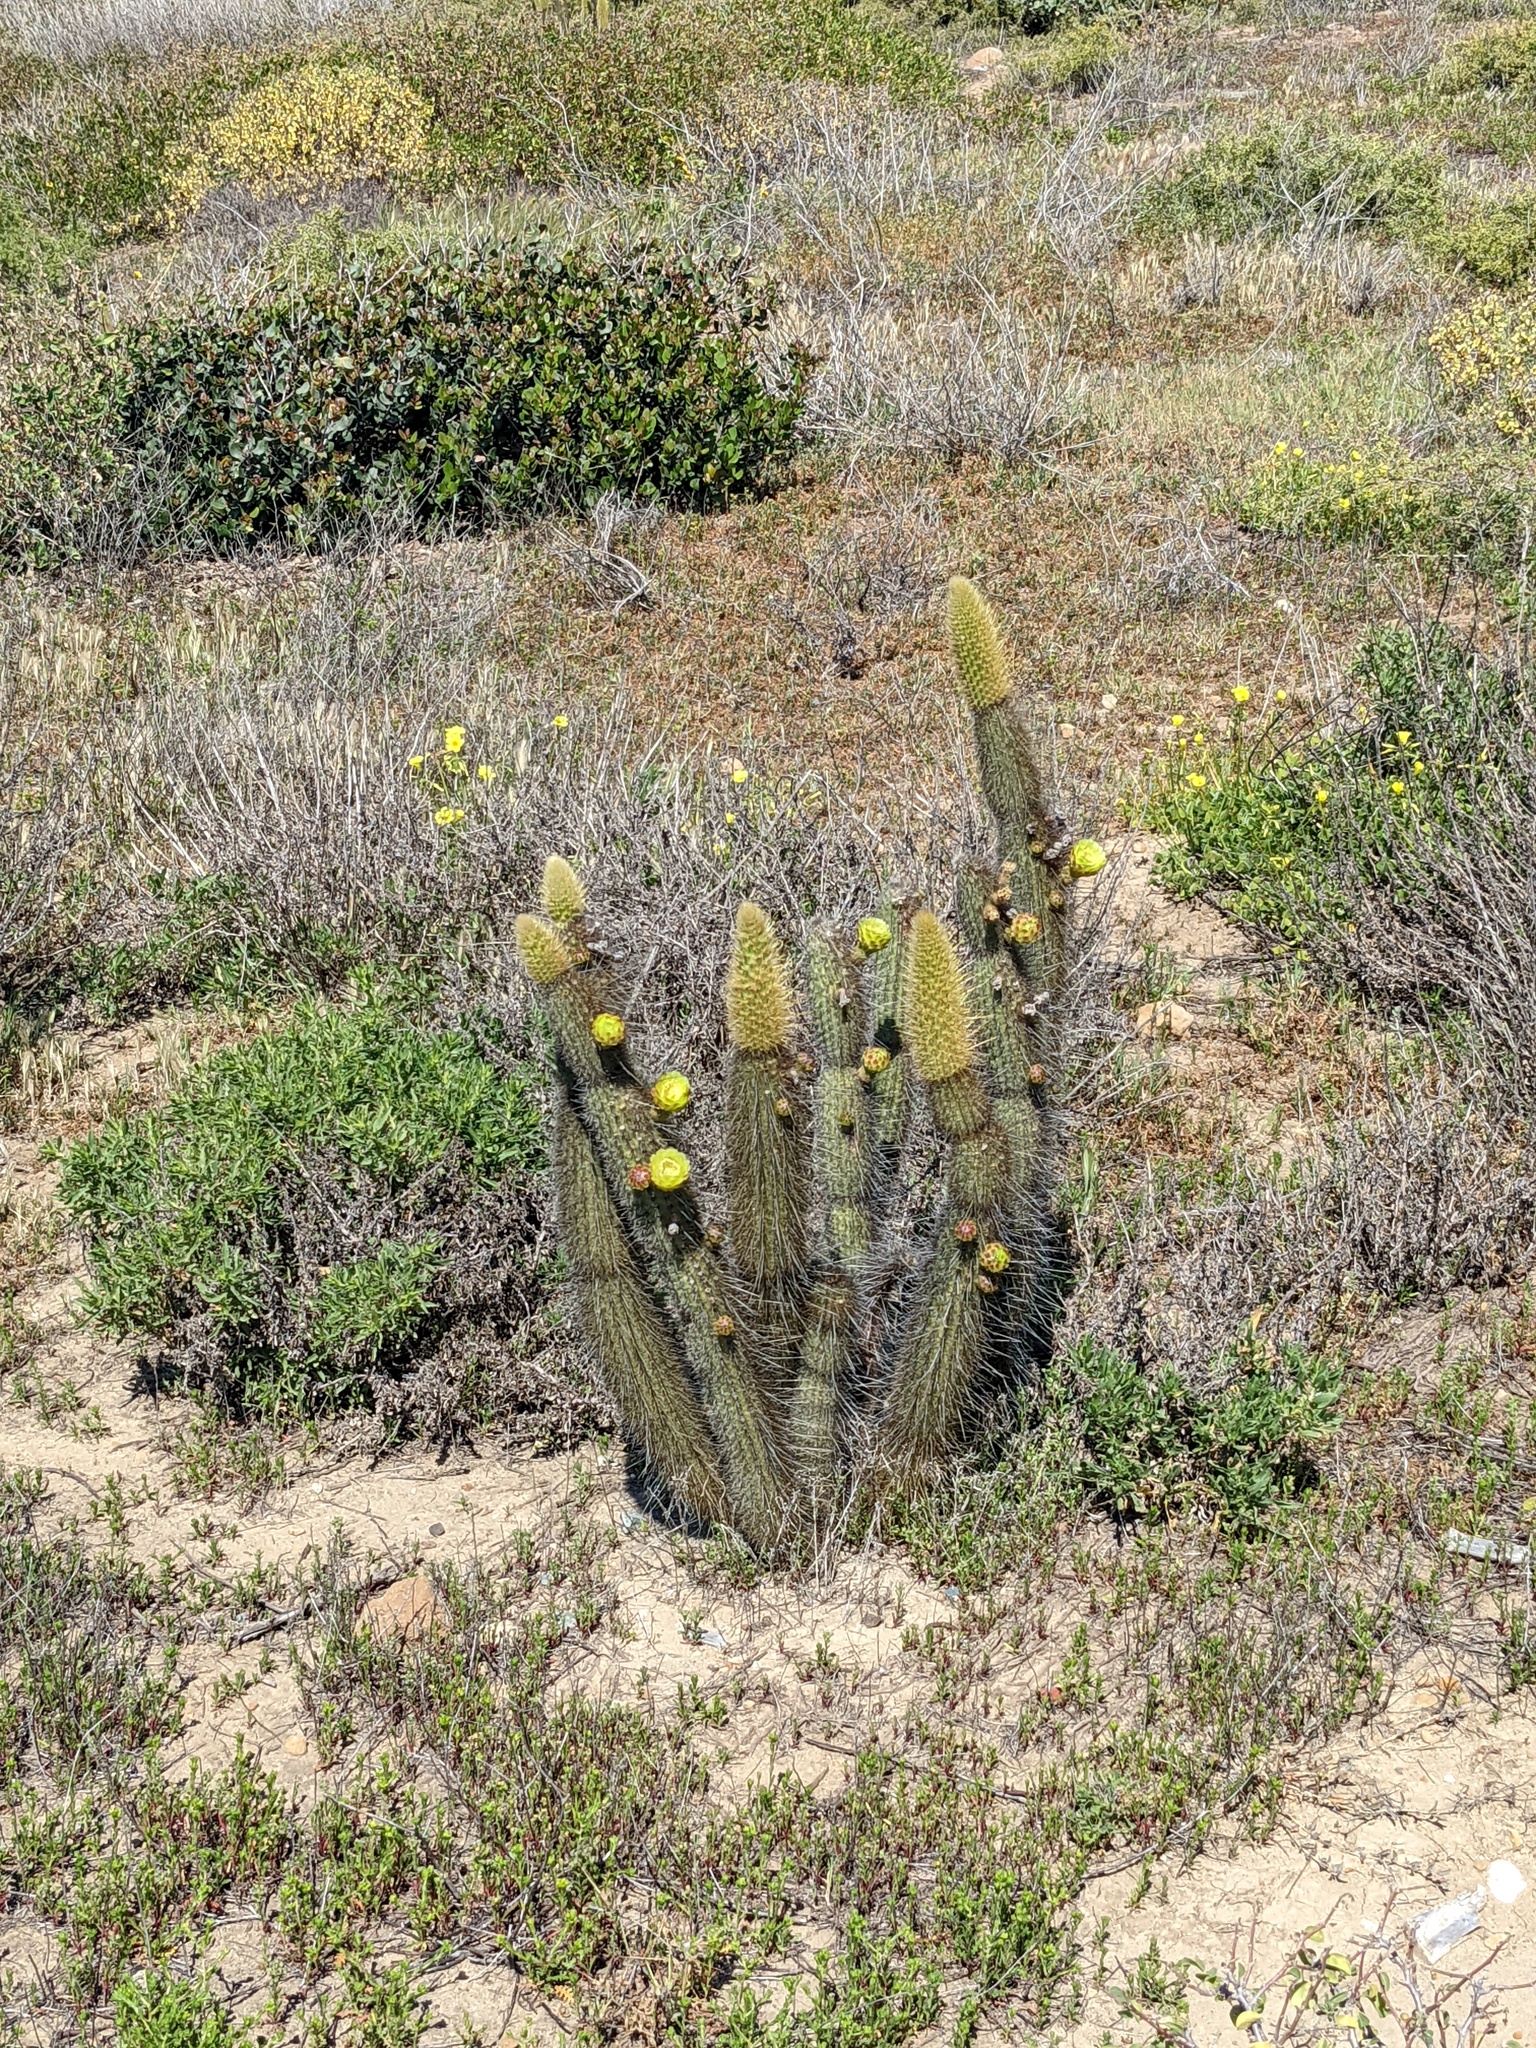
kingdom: Plantae
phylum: Tracheophyta
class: Magnoliopsida
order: Caryophyllales
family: Cactaceae
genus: Bergerocactus
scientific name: Bergerocactus emoryi
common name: Golden snakecactus
